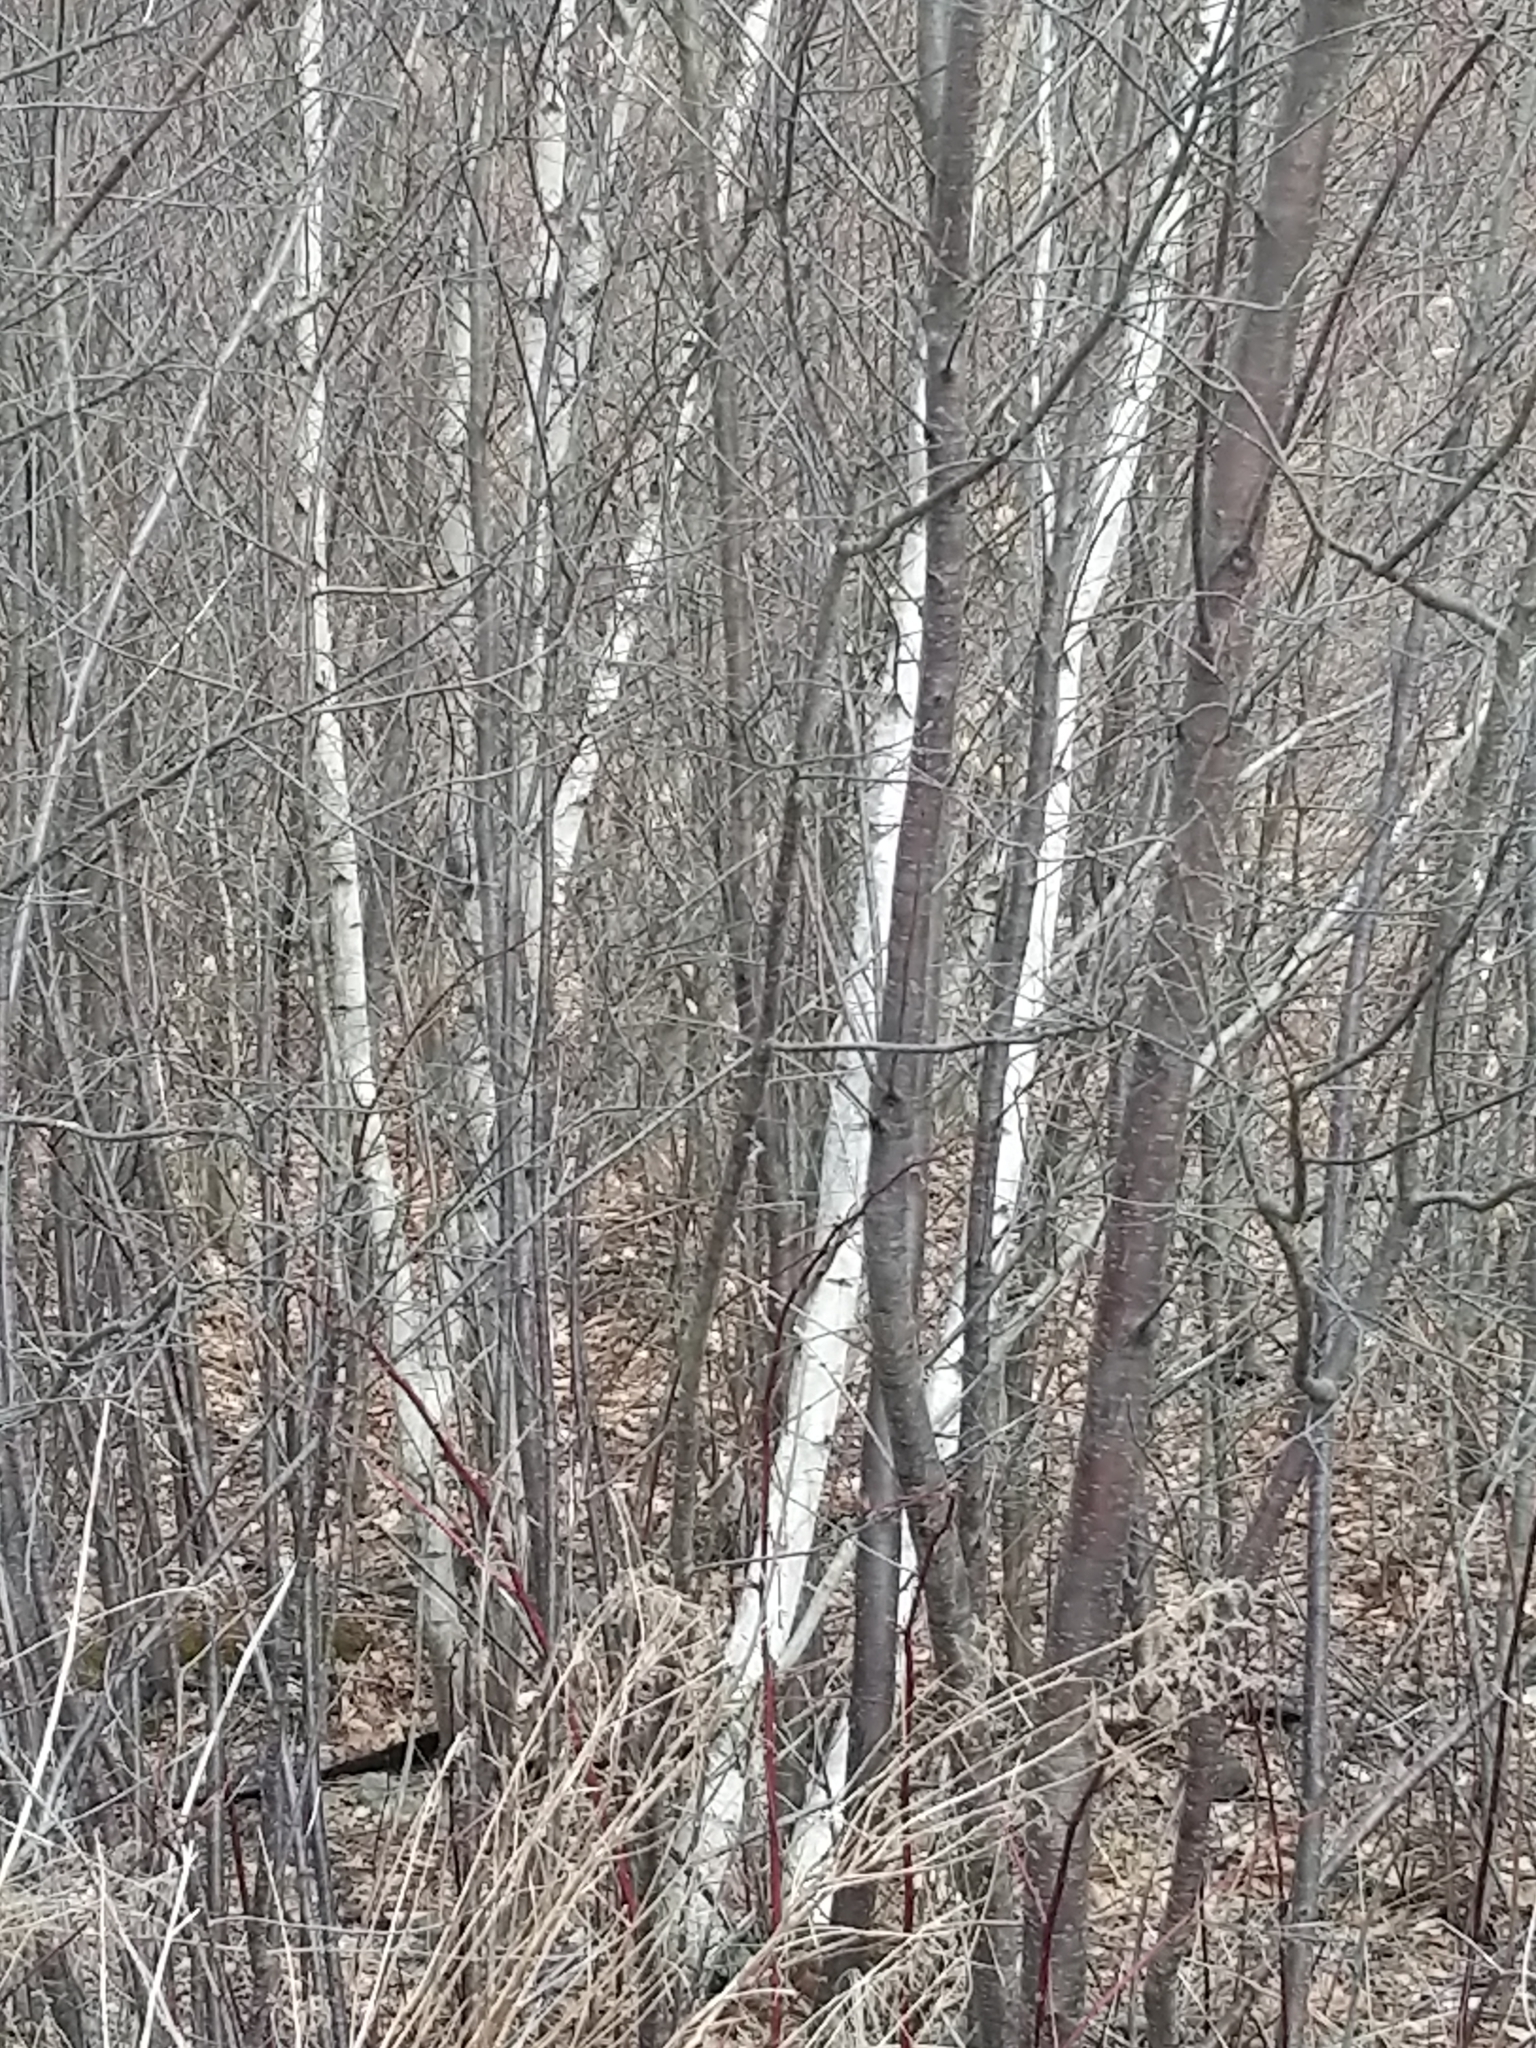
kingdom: Plantae
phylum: Tracheophyta
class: Magnoliopsida
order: Fagales
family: Betulaceae
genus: Betula
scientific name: Betula populifolia
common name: Fire birch
